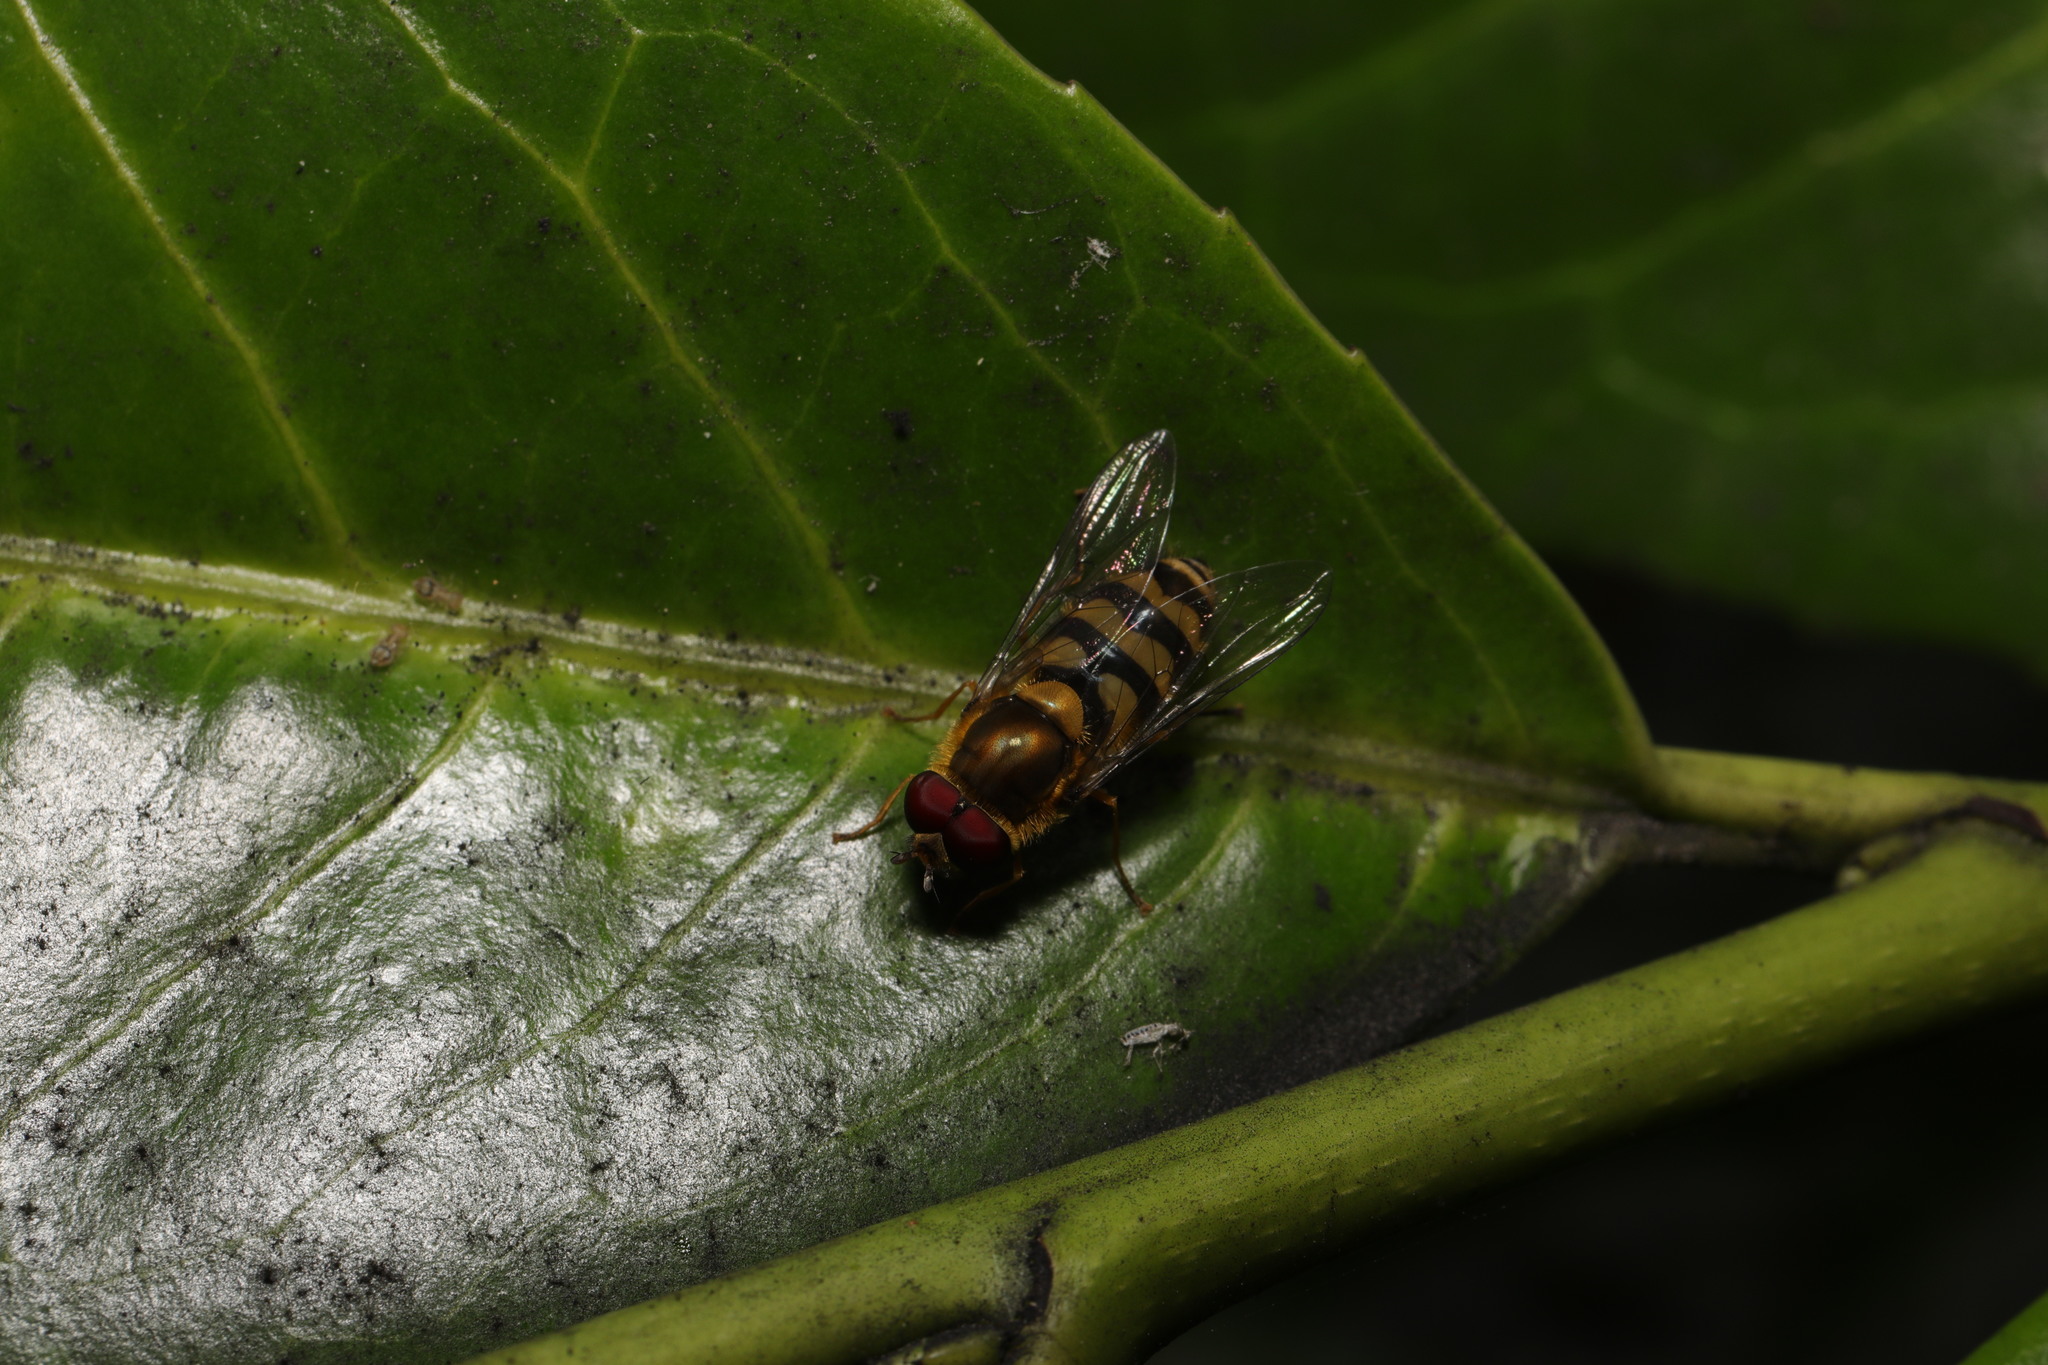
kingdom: Animalia
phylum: Arthropoda
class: Insecta
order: Diptera
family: Syrphidae
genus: Syrphus
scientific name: Syrphus
